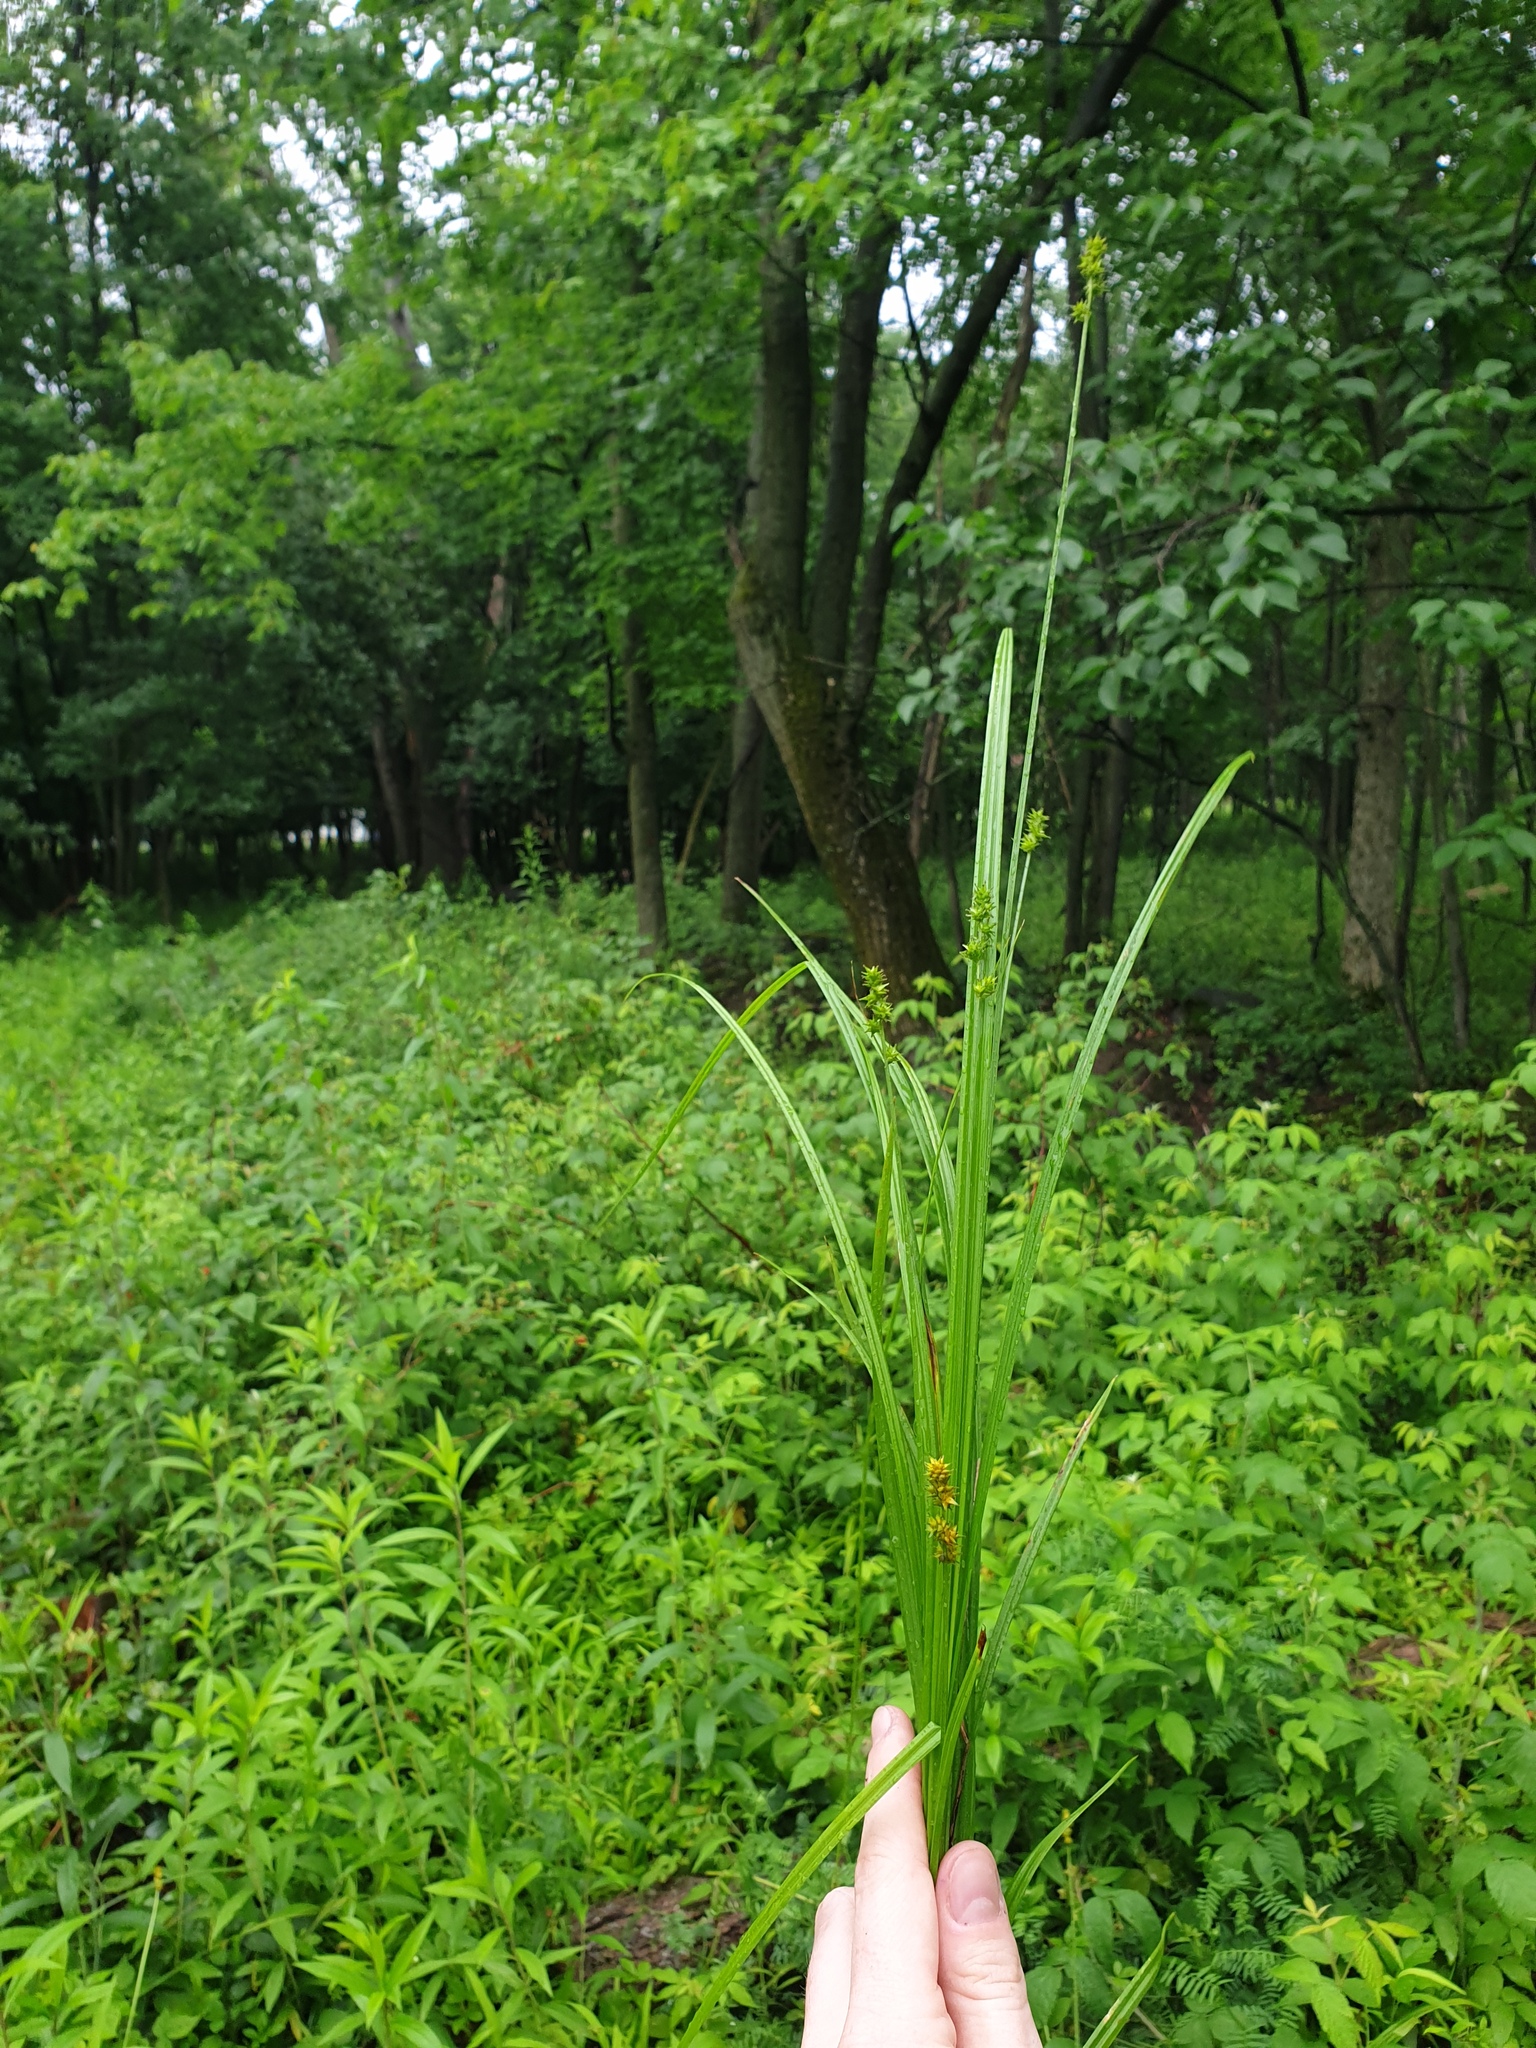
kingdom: Plantae
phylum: Tracheophyta
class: Liliopsida
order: Poales
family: Cyperaceae
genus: Carex
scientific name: Carex cephaloidea
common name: Thin-leaved sedge
